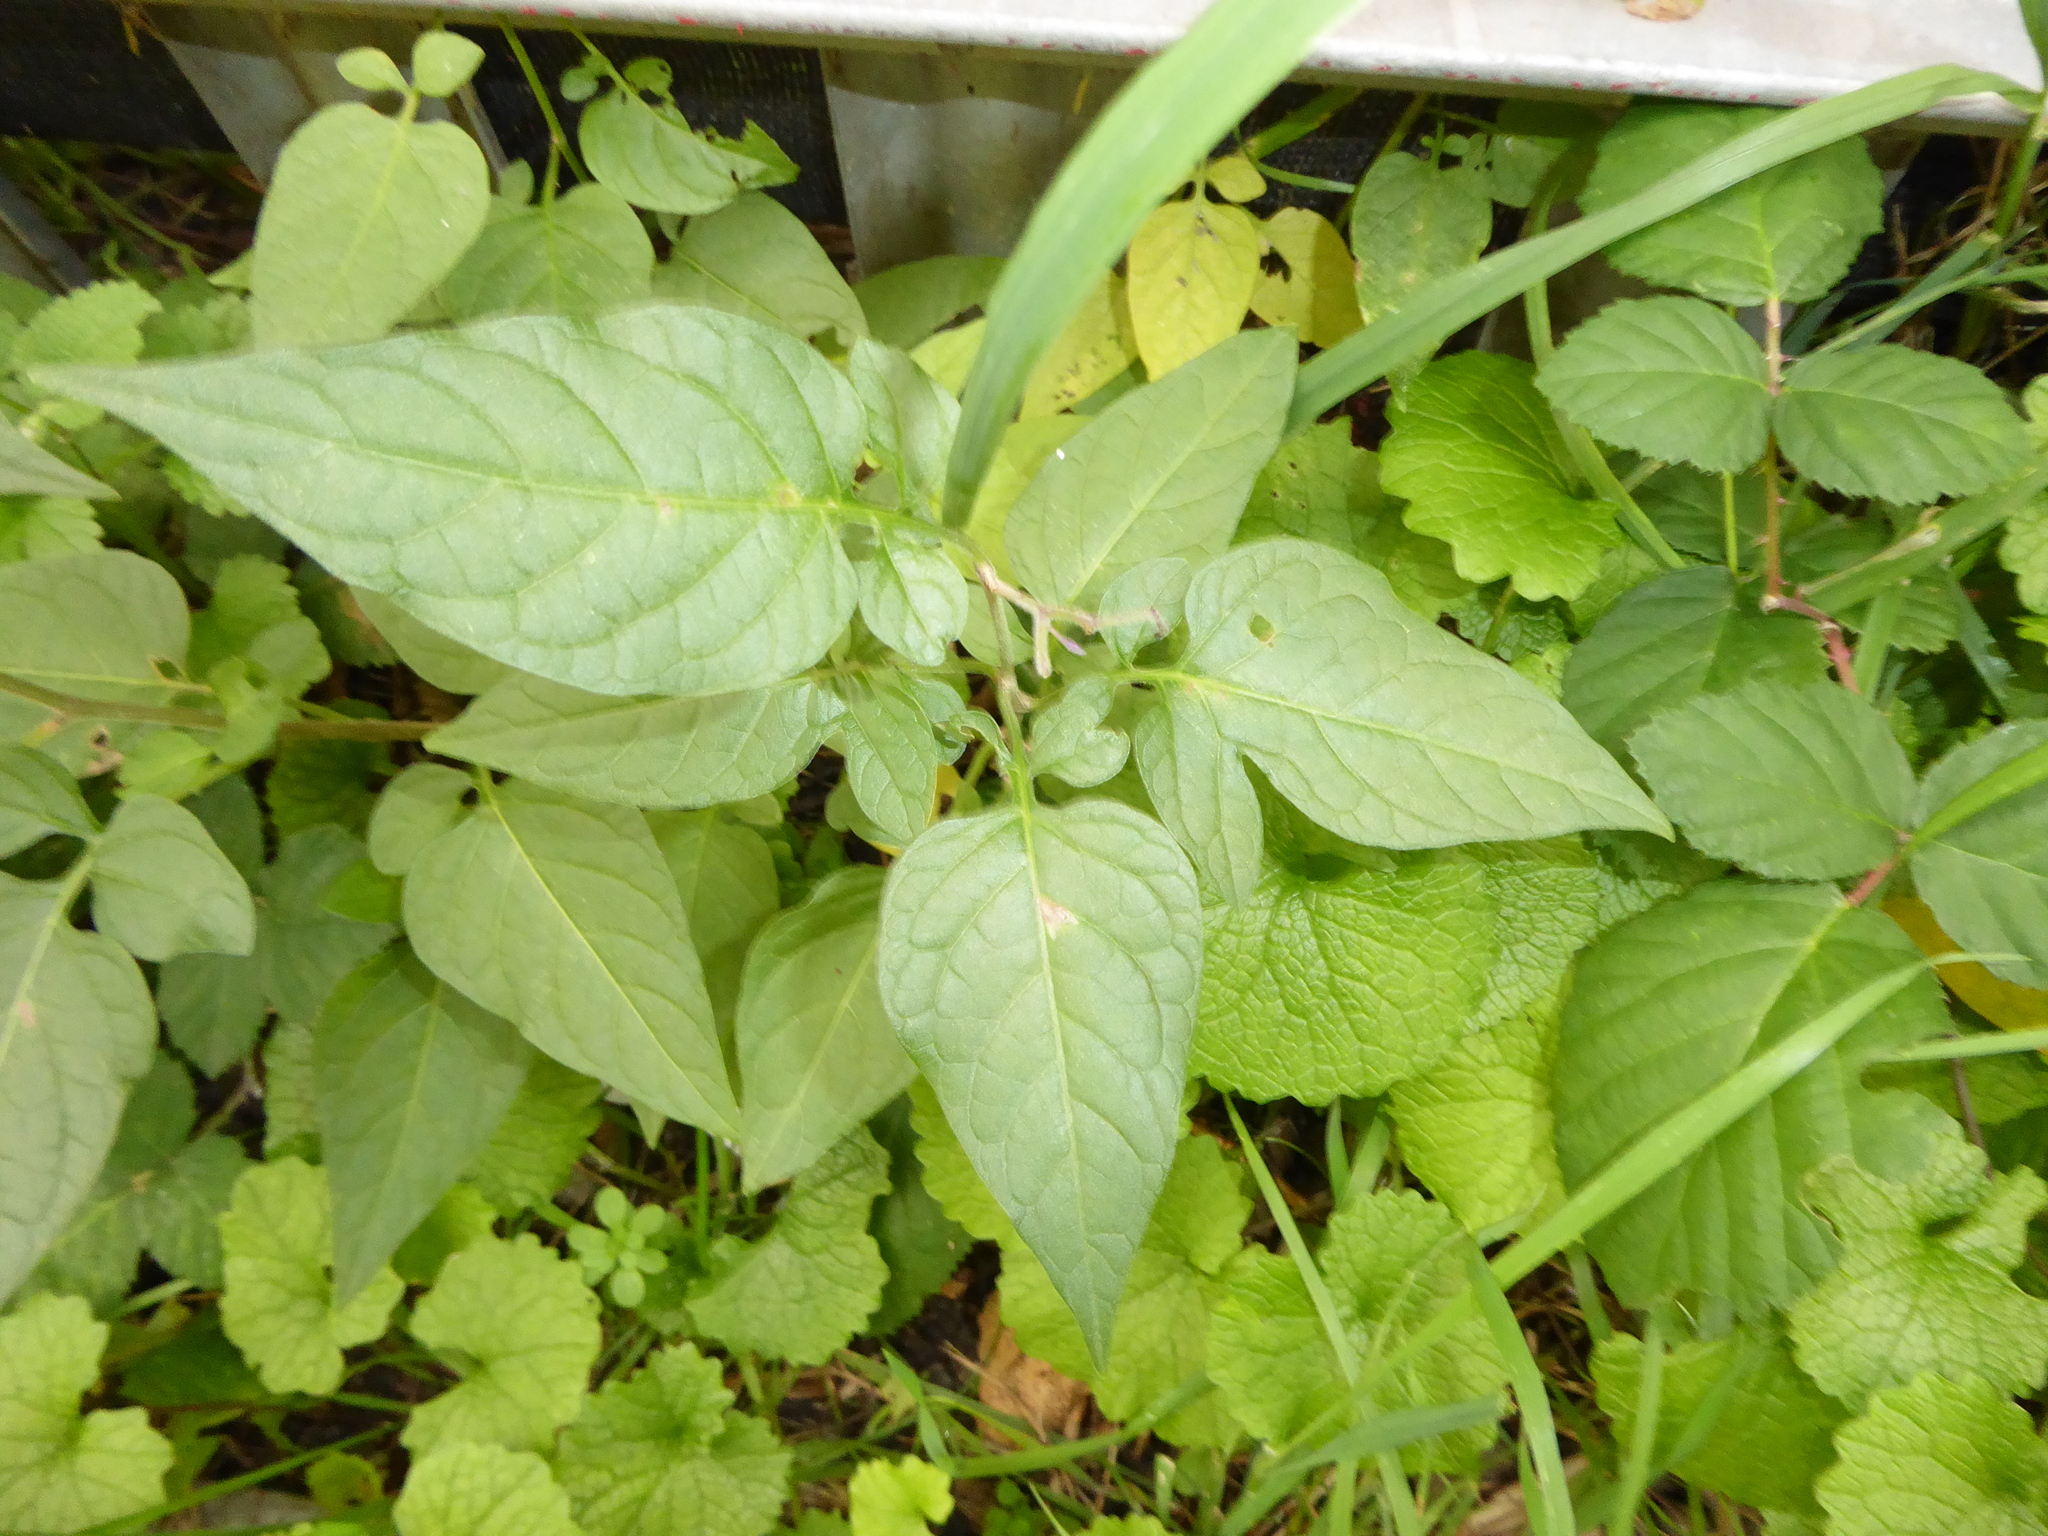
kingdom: Plantae
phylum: Tracheophyta
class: Magnoliopsida
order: Solanales
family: Solanaceae
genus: Solanum
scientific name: Solanum dulcamara
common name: Climbing nightshade
